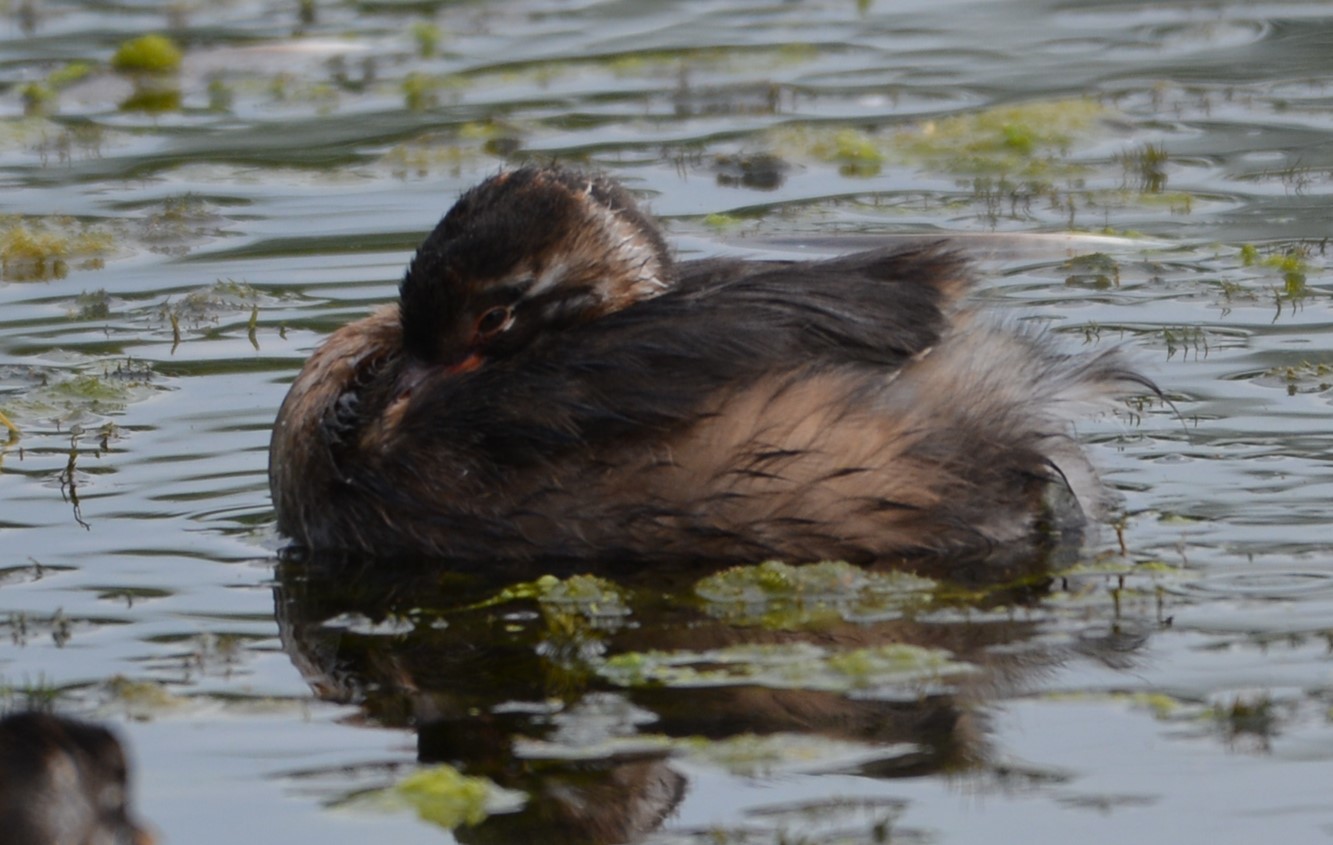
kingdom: Animalia
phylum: Chordata
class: Aves
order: Podicipediformes
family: Podicipedidae
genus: Tachybaptus
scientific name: Tachybaptus ruficollis
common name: Little grebe
